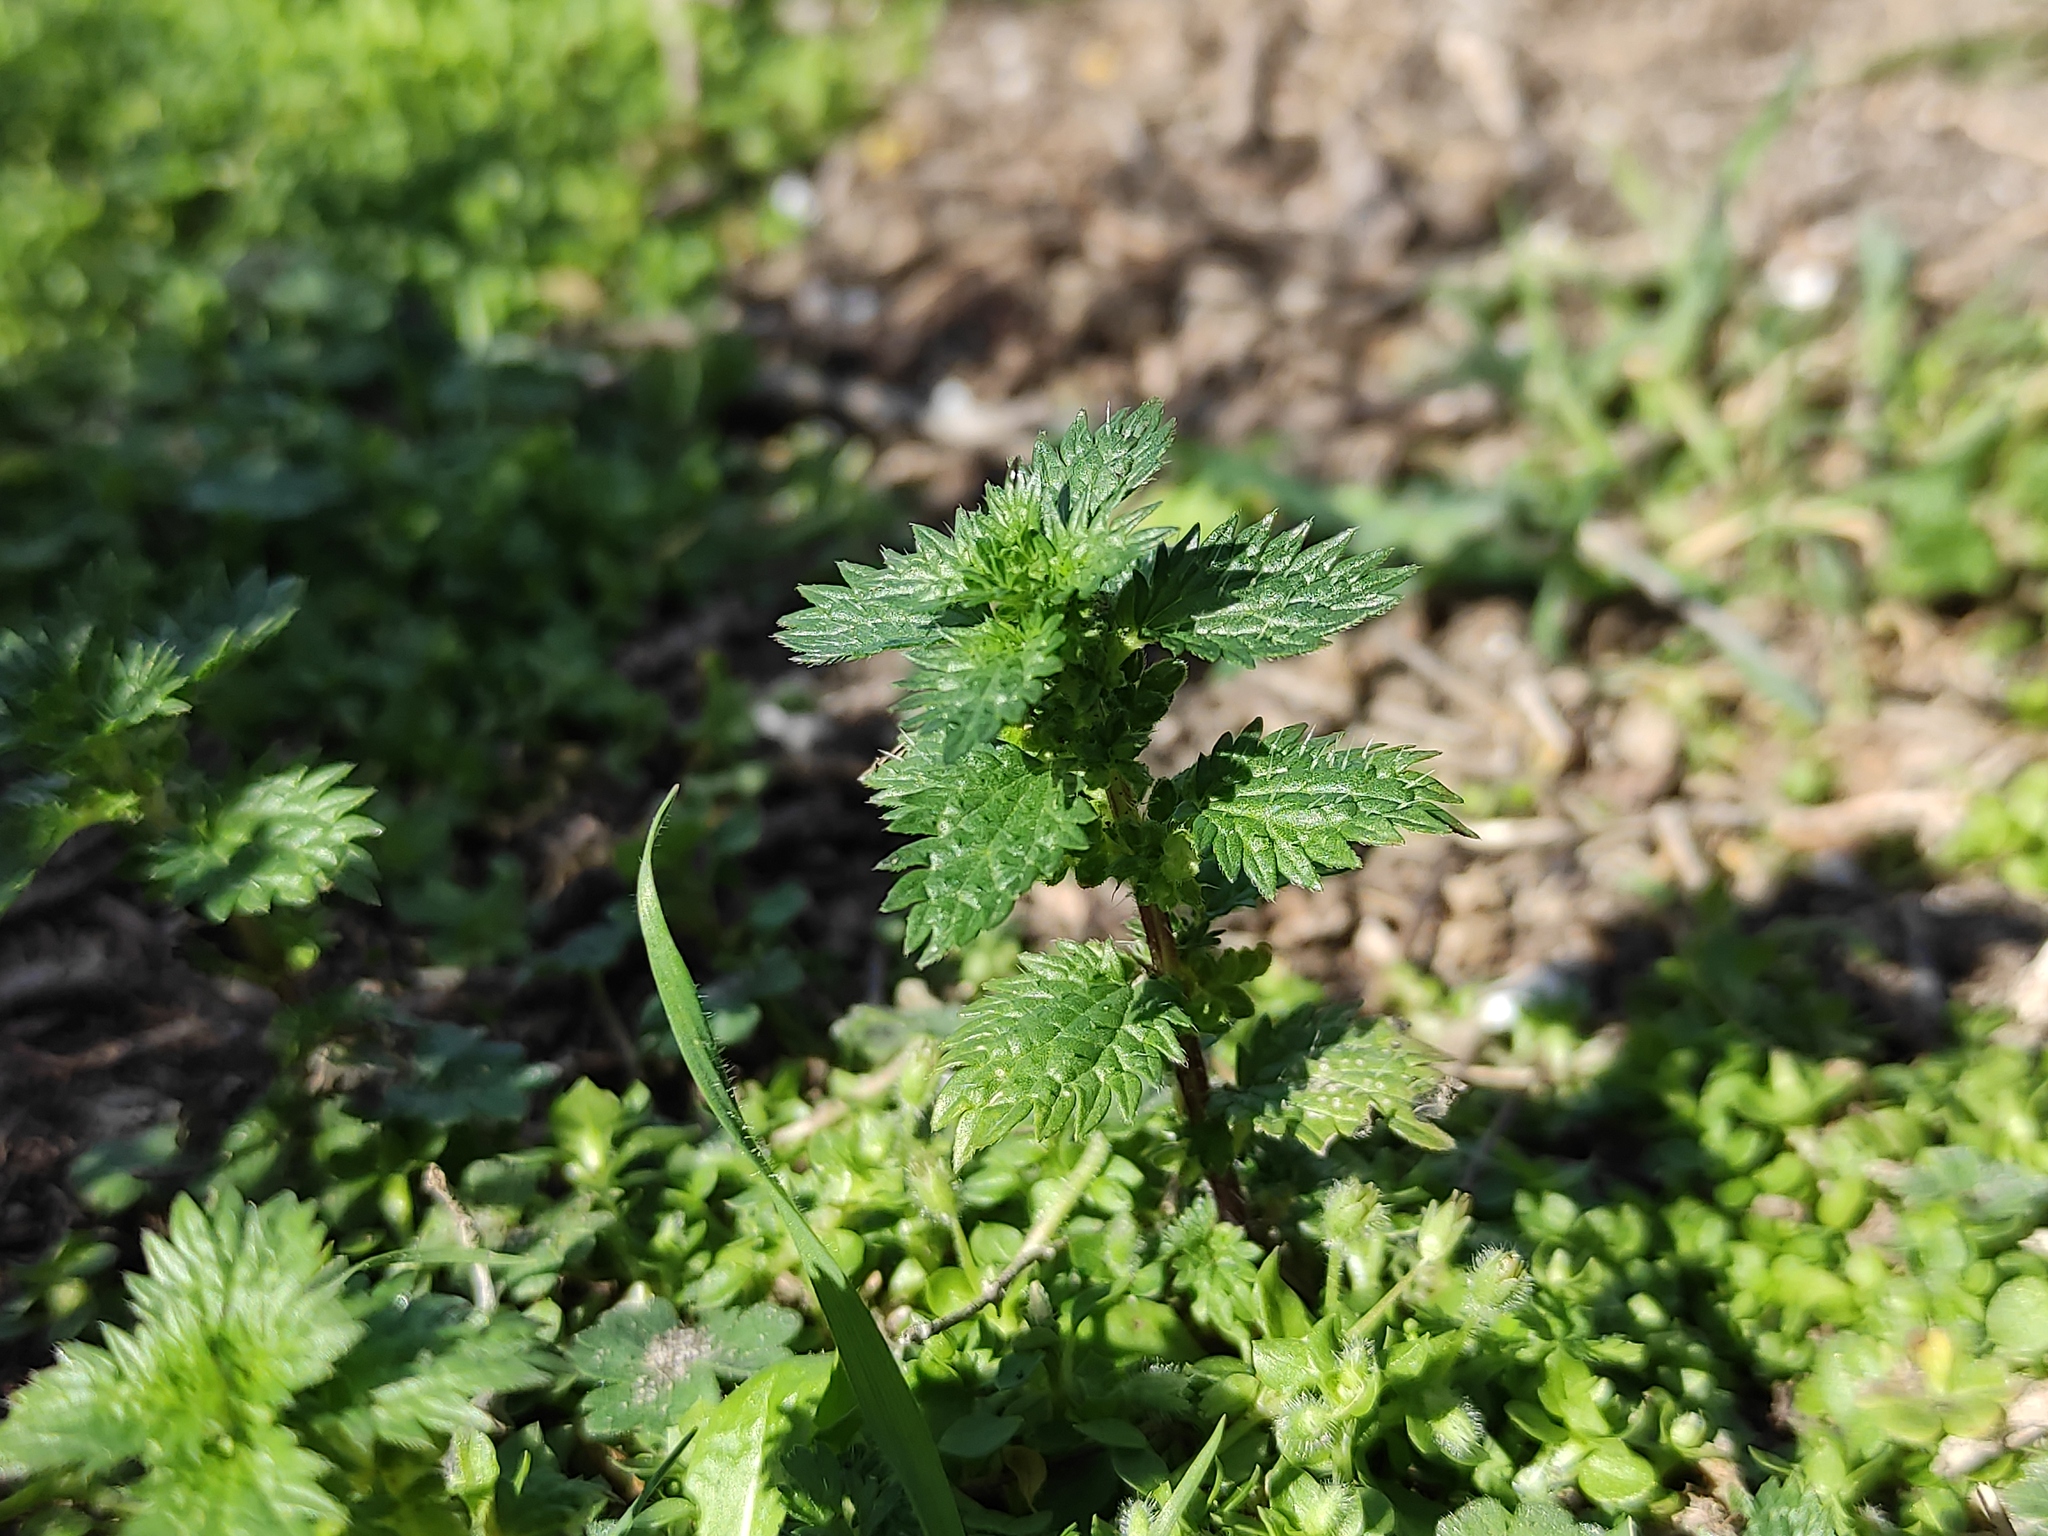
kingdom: Plantae
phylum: Tracheophyta
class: Magnoliopsida
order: Rosales
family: Urticaceae
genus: Urtica
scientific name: Urtica urens
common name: Dwarf nettle
